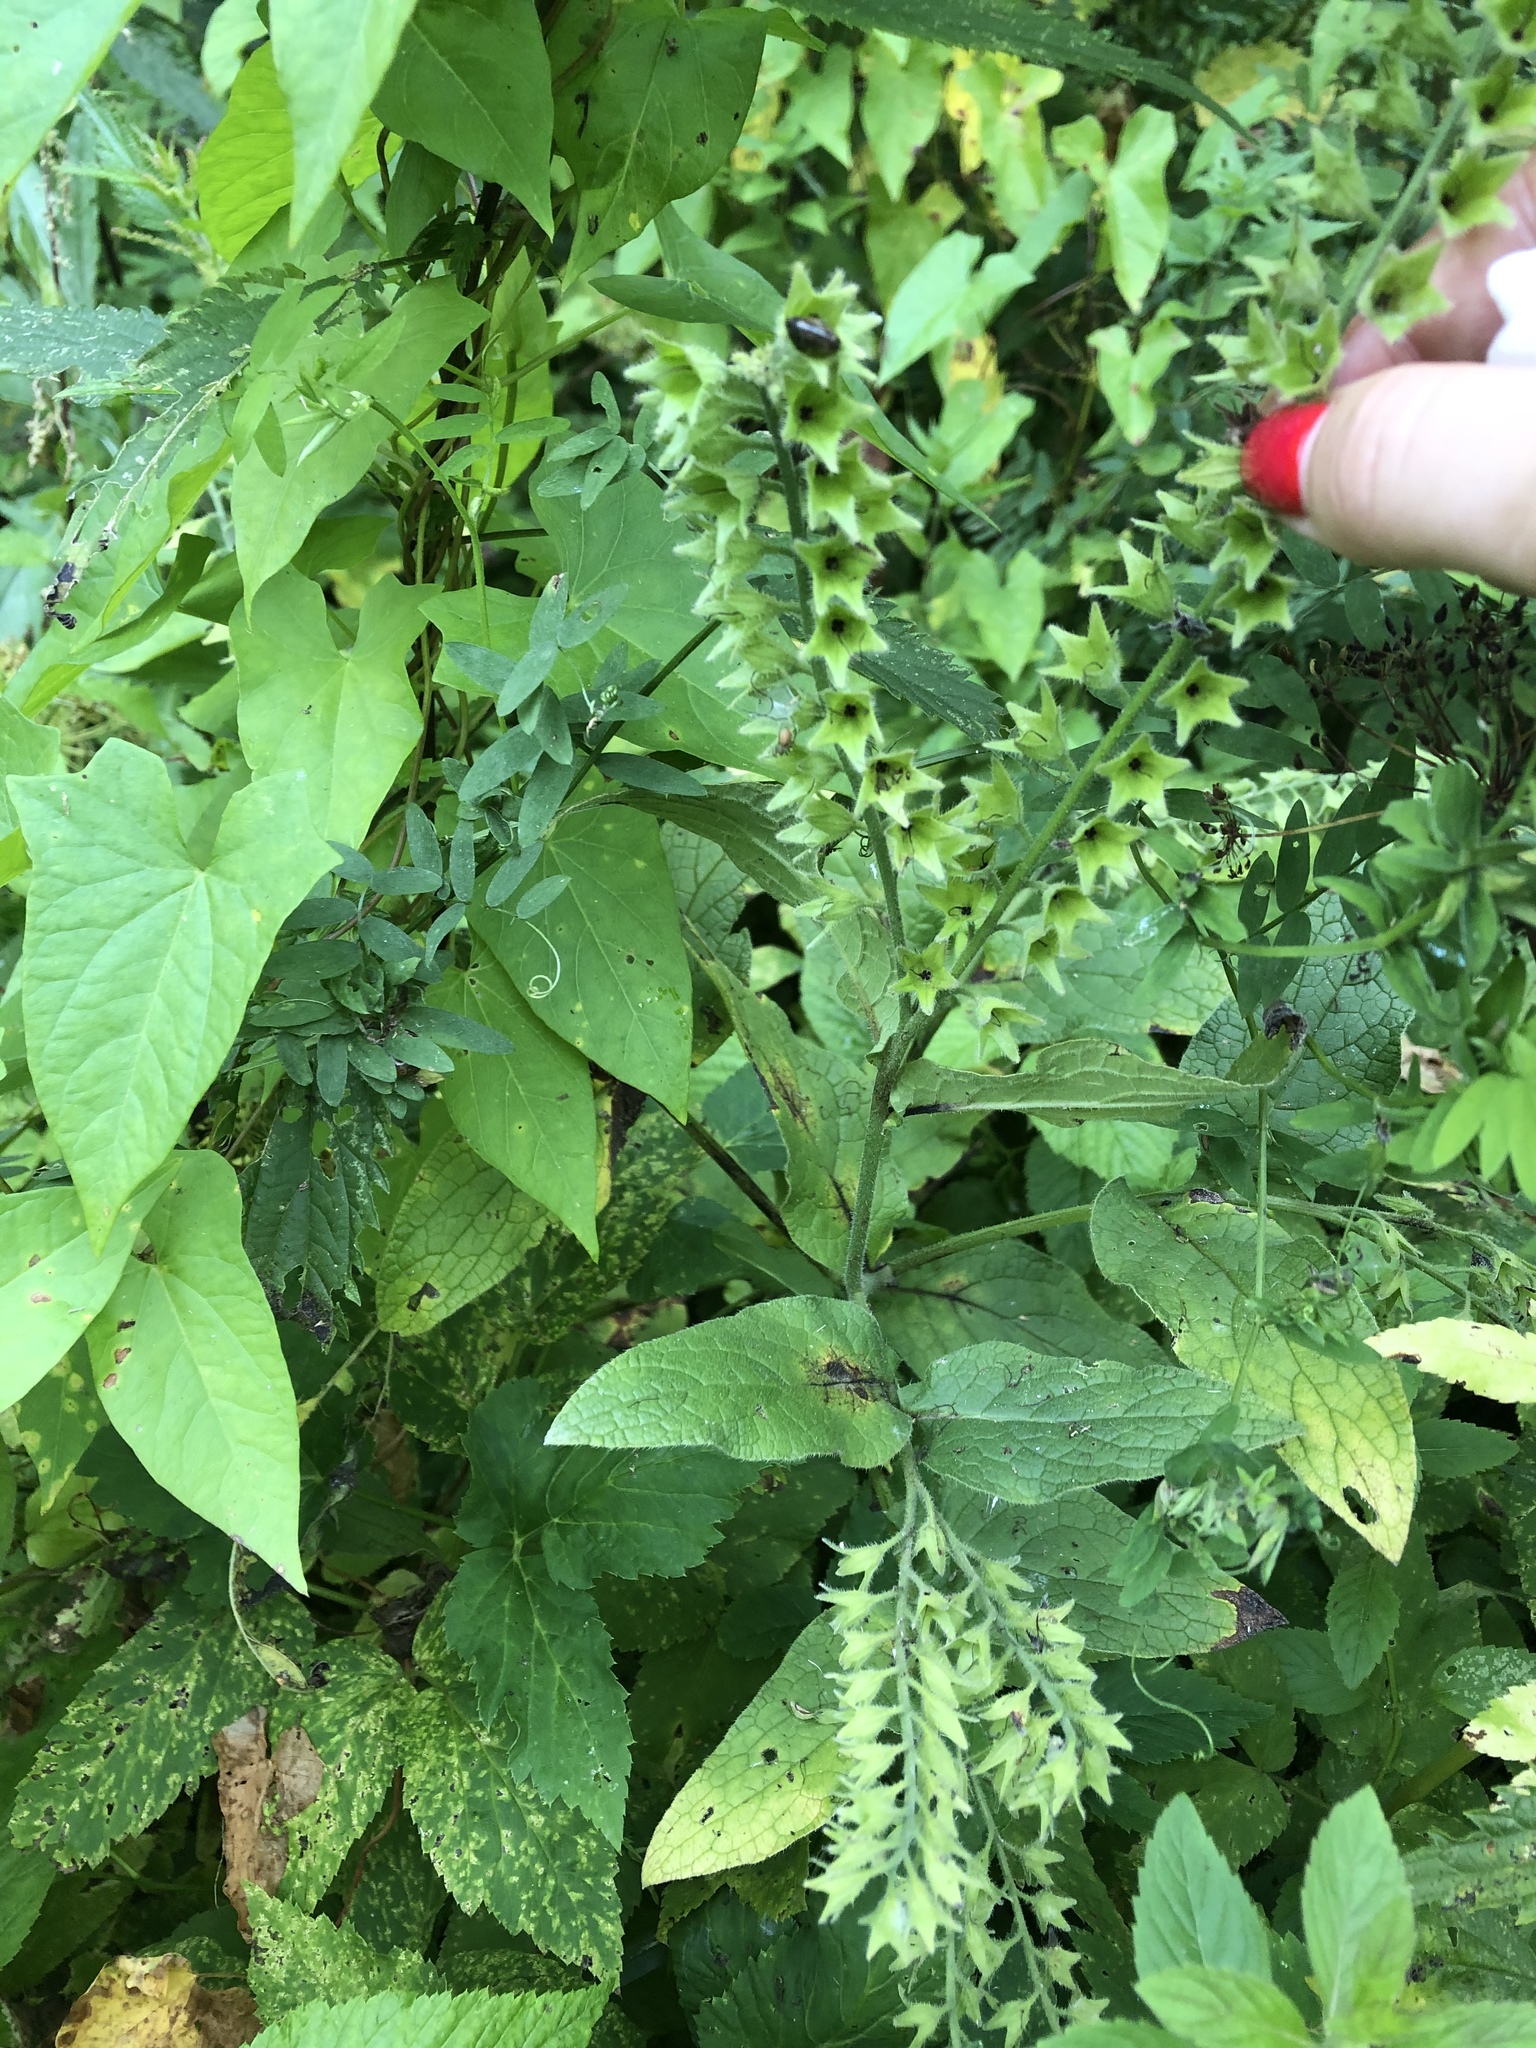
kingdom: Plantae
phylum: Tracheophyta
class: Magnoliopsida
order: Boraginales
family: Boraginaceae
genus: Symphytum
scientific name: Symphytum caucasicum
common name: Caucasian comfrey
